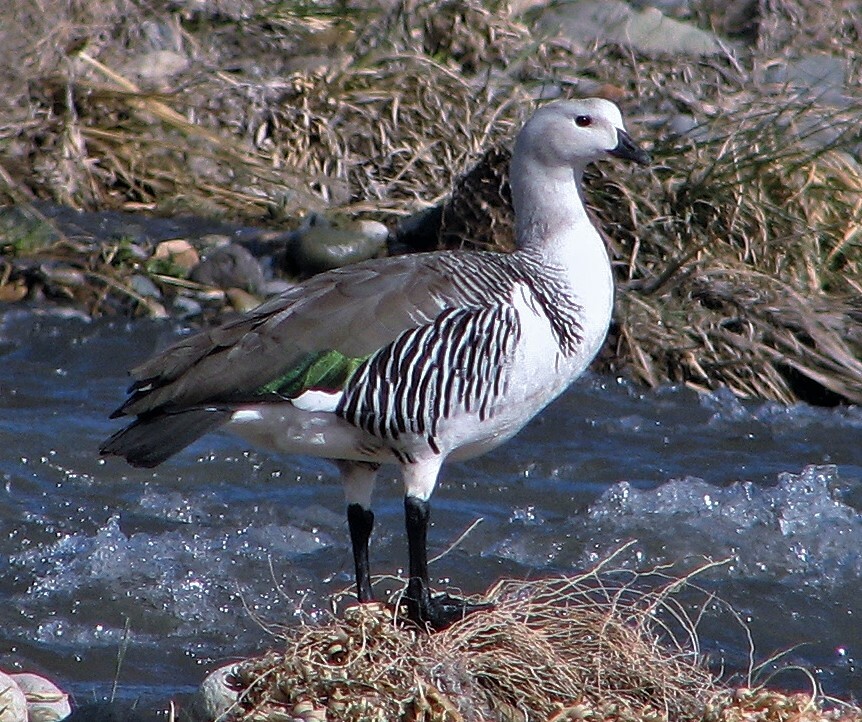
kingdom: Animalia
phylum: Chordata
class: Aves
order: Anseriformes
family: Anatidae
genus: Chloephaga
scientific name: Chloephaga picta
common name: Upland goose
